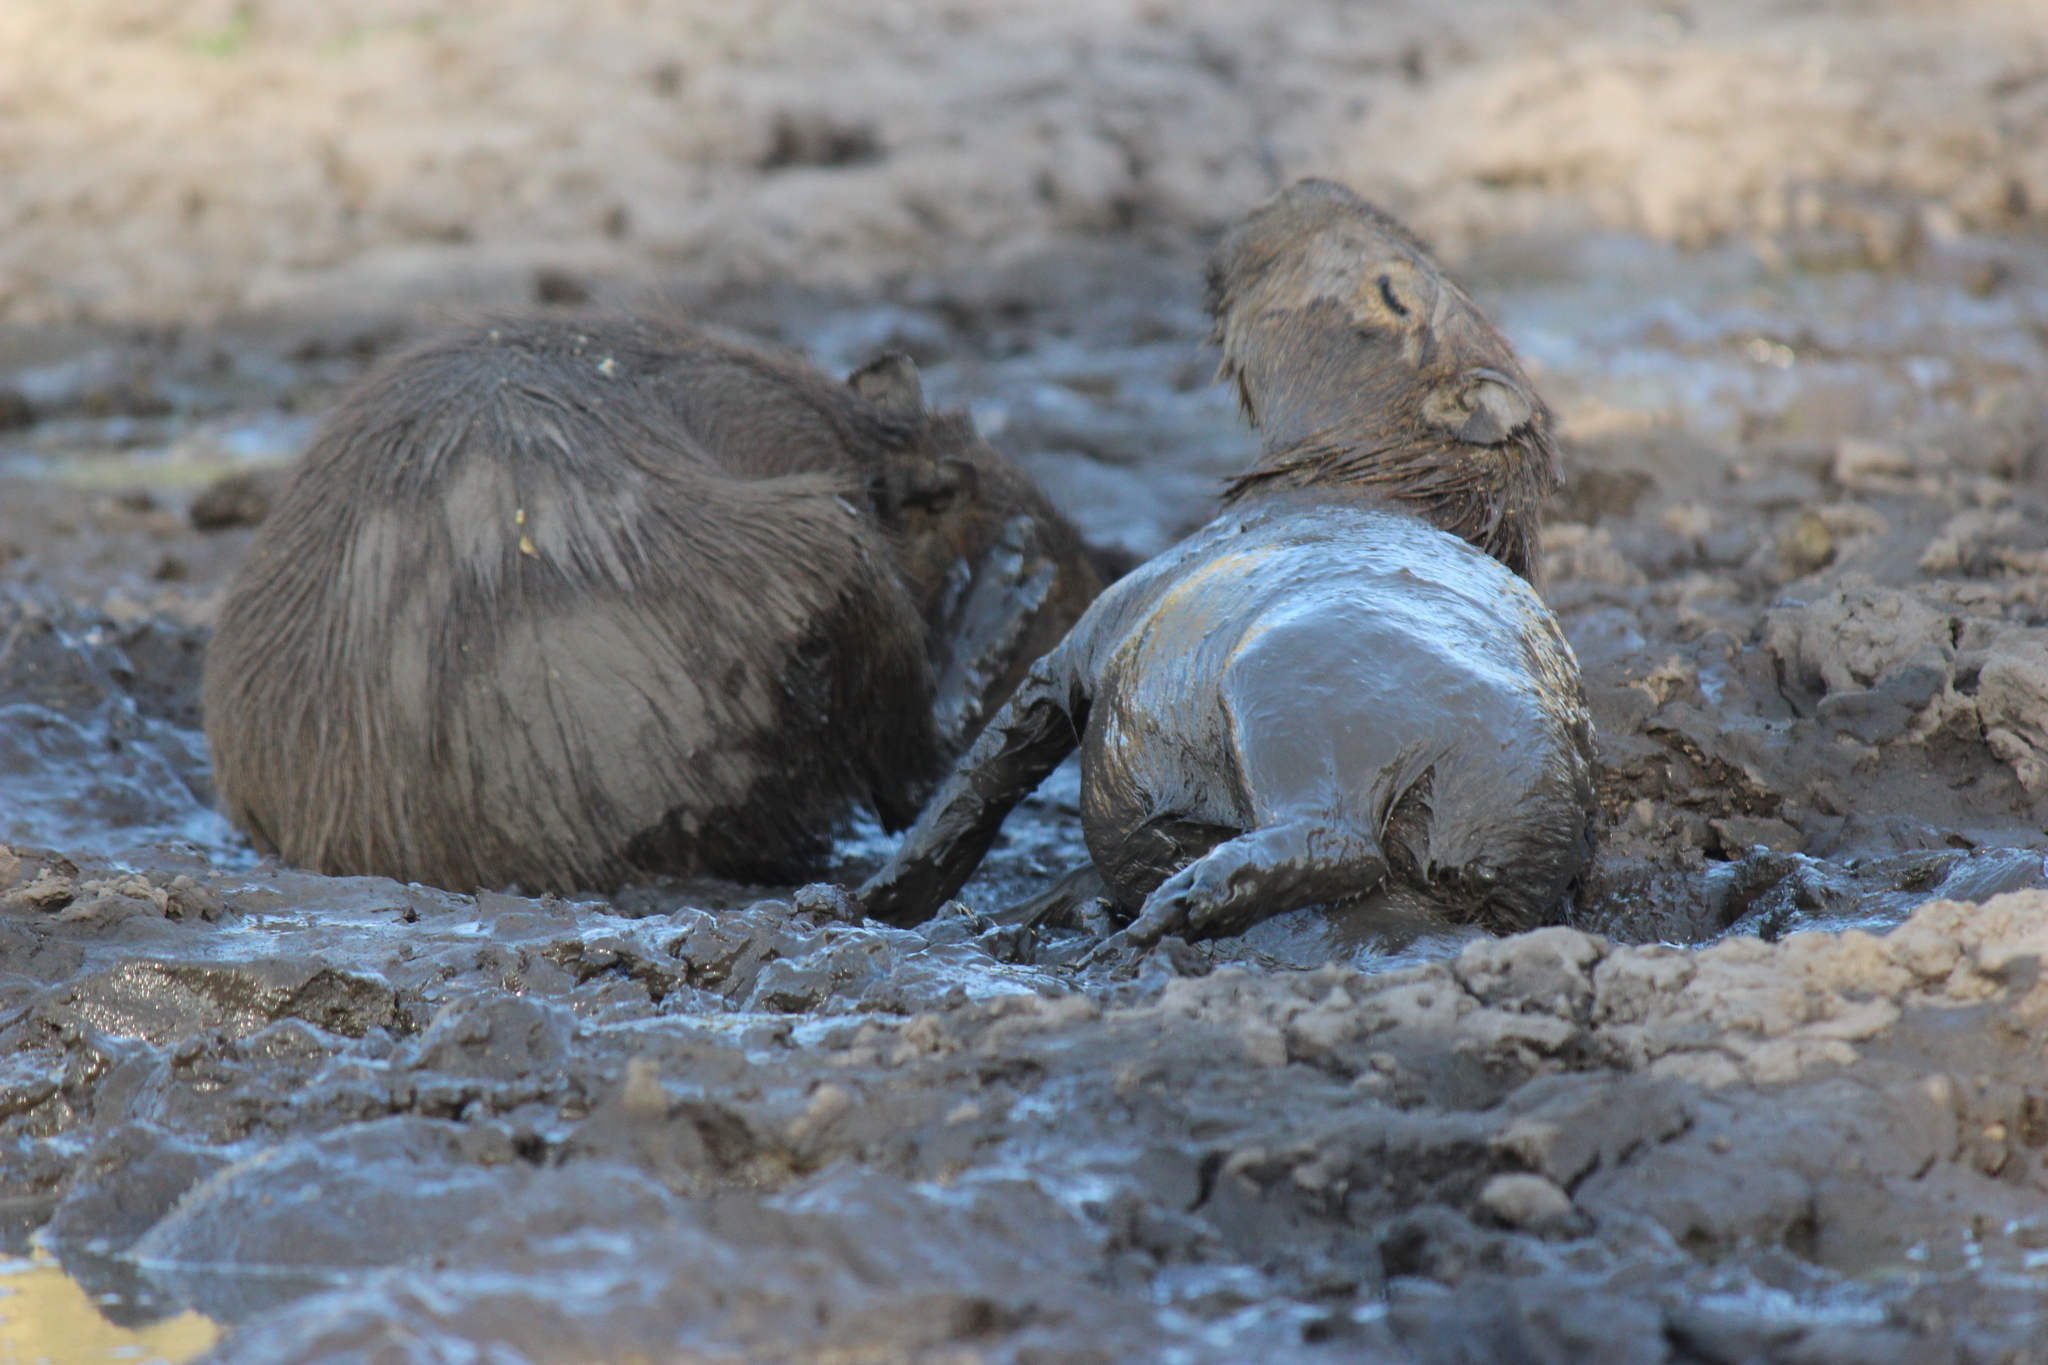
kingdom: Animalia
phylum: Chordata
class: Mammalia
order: Rodentia
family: Caviidae
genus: Hydrochoerus
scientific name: Hydrochoerus hydrochaeris
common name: Capybara
